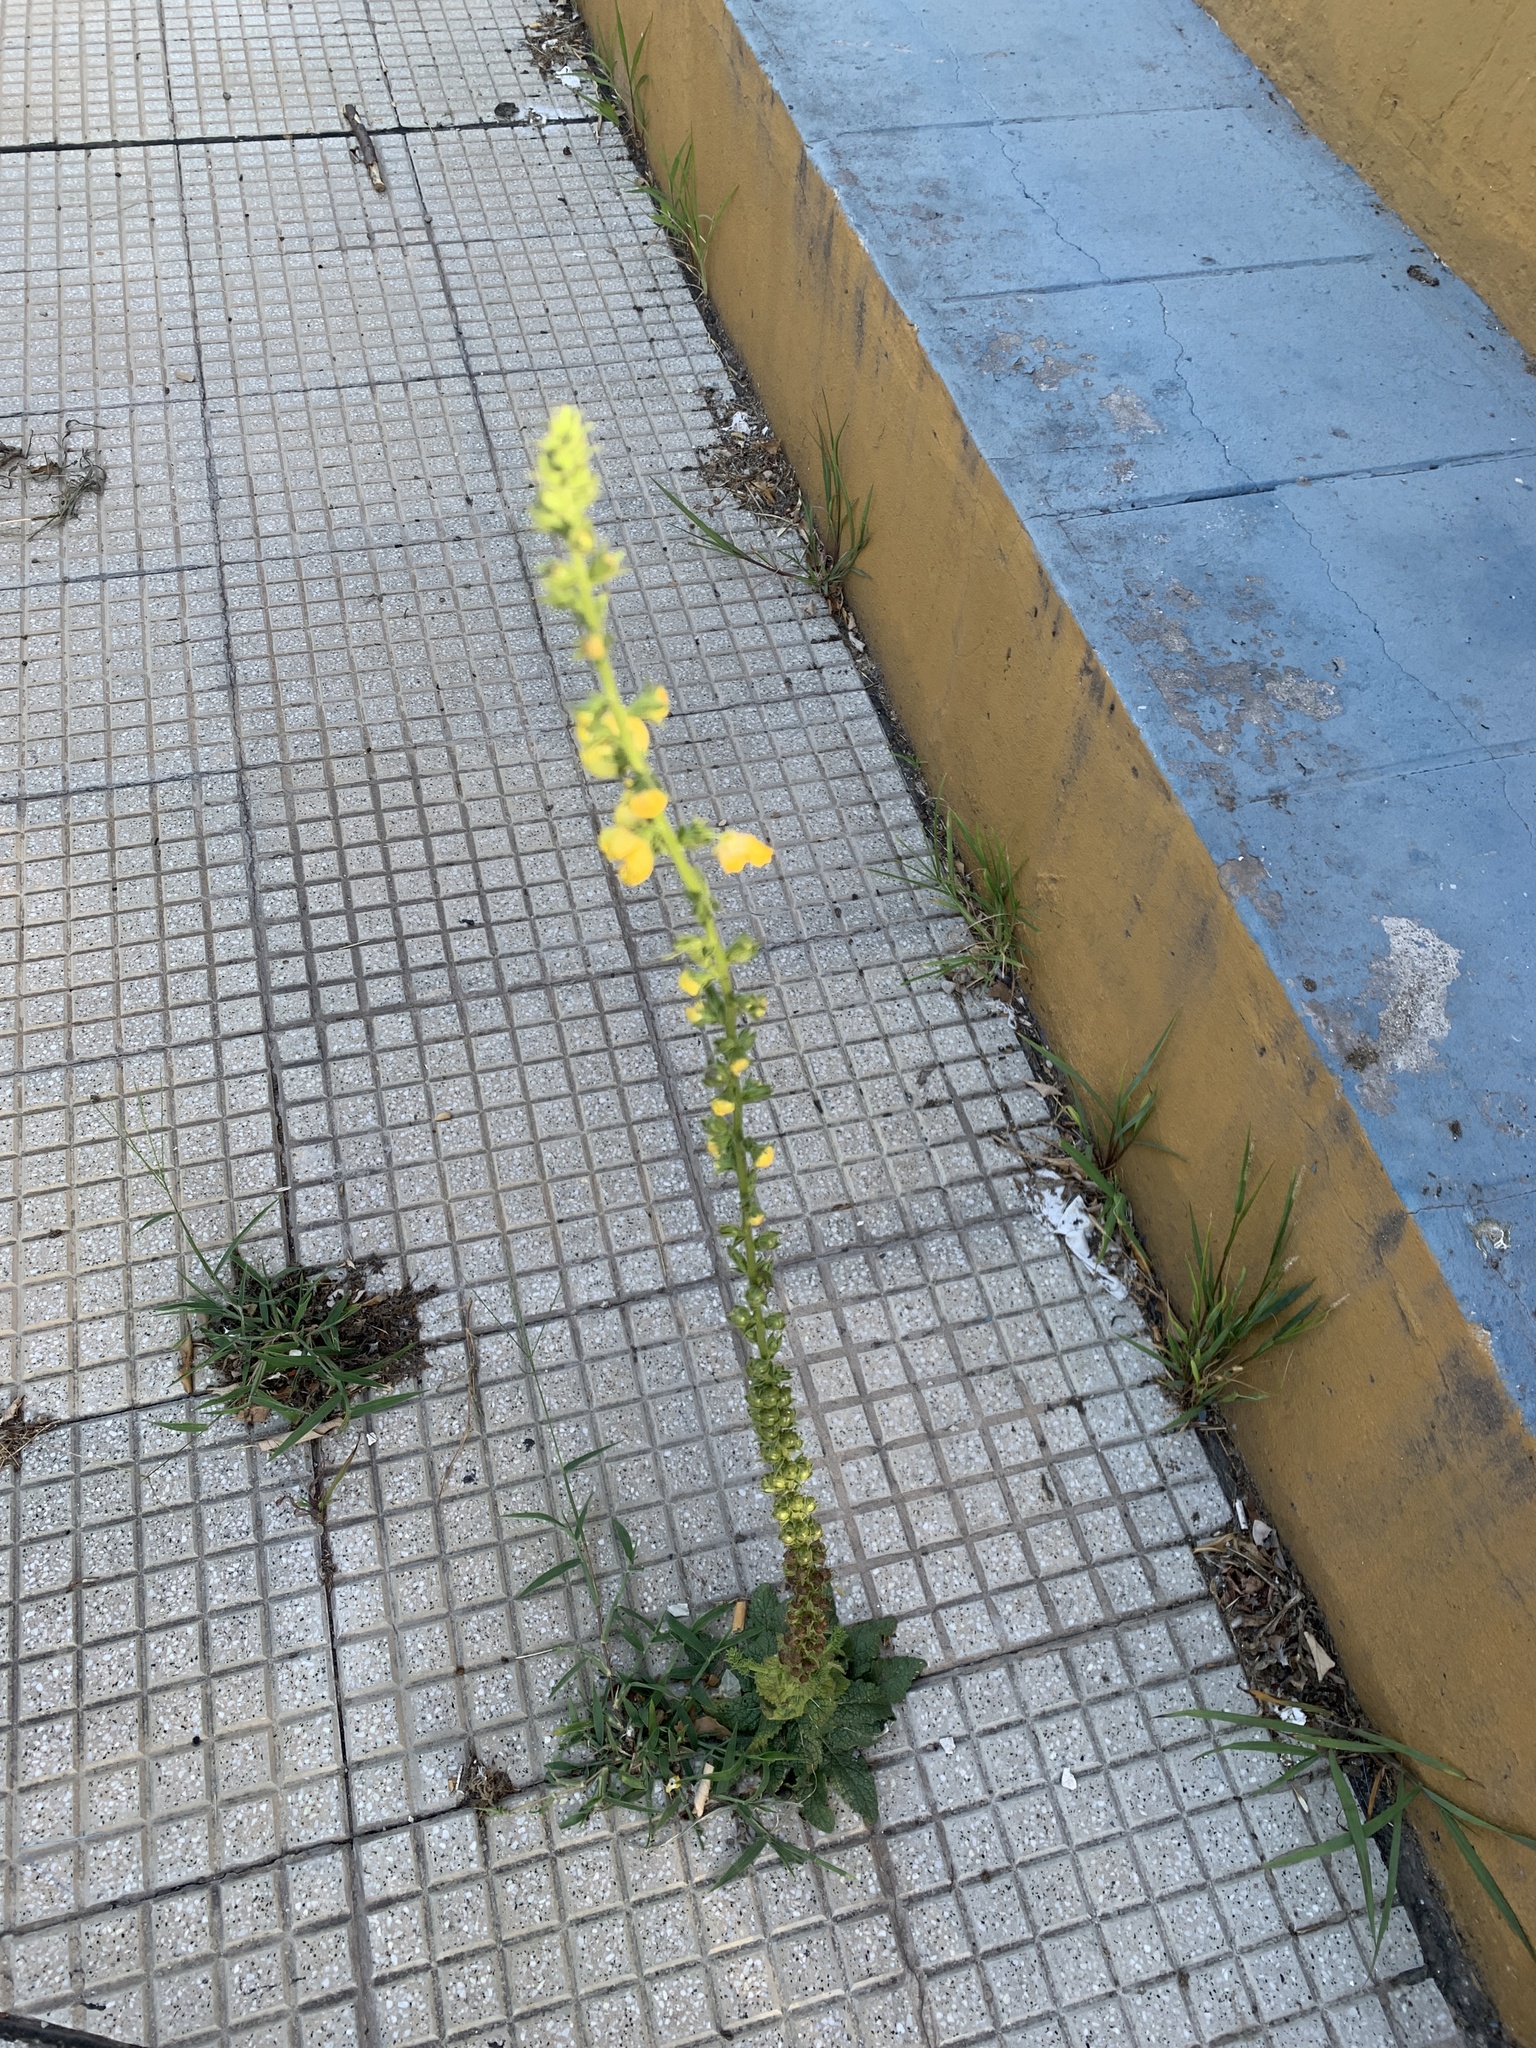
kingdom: Plantae
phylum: Tracheophyta
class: Magnoliopsida
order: Lamiales
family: Scrophulariaceae
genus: Verbascum
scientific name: Verbascum virgatum
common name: Twiggy mullein
